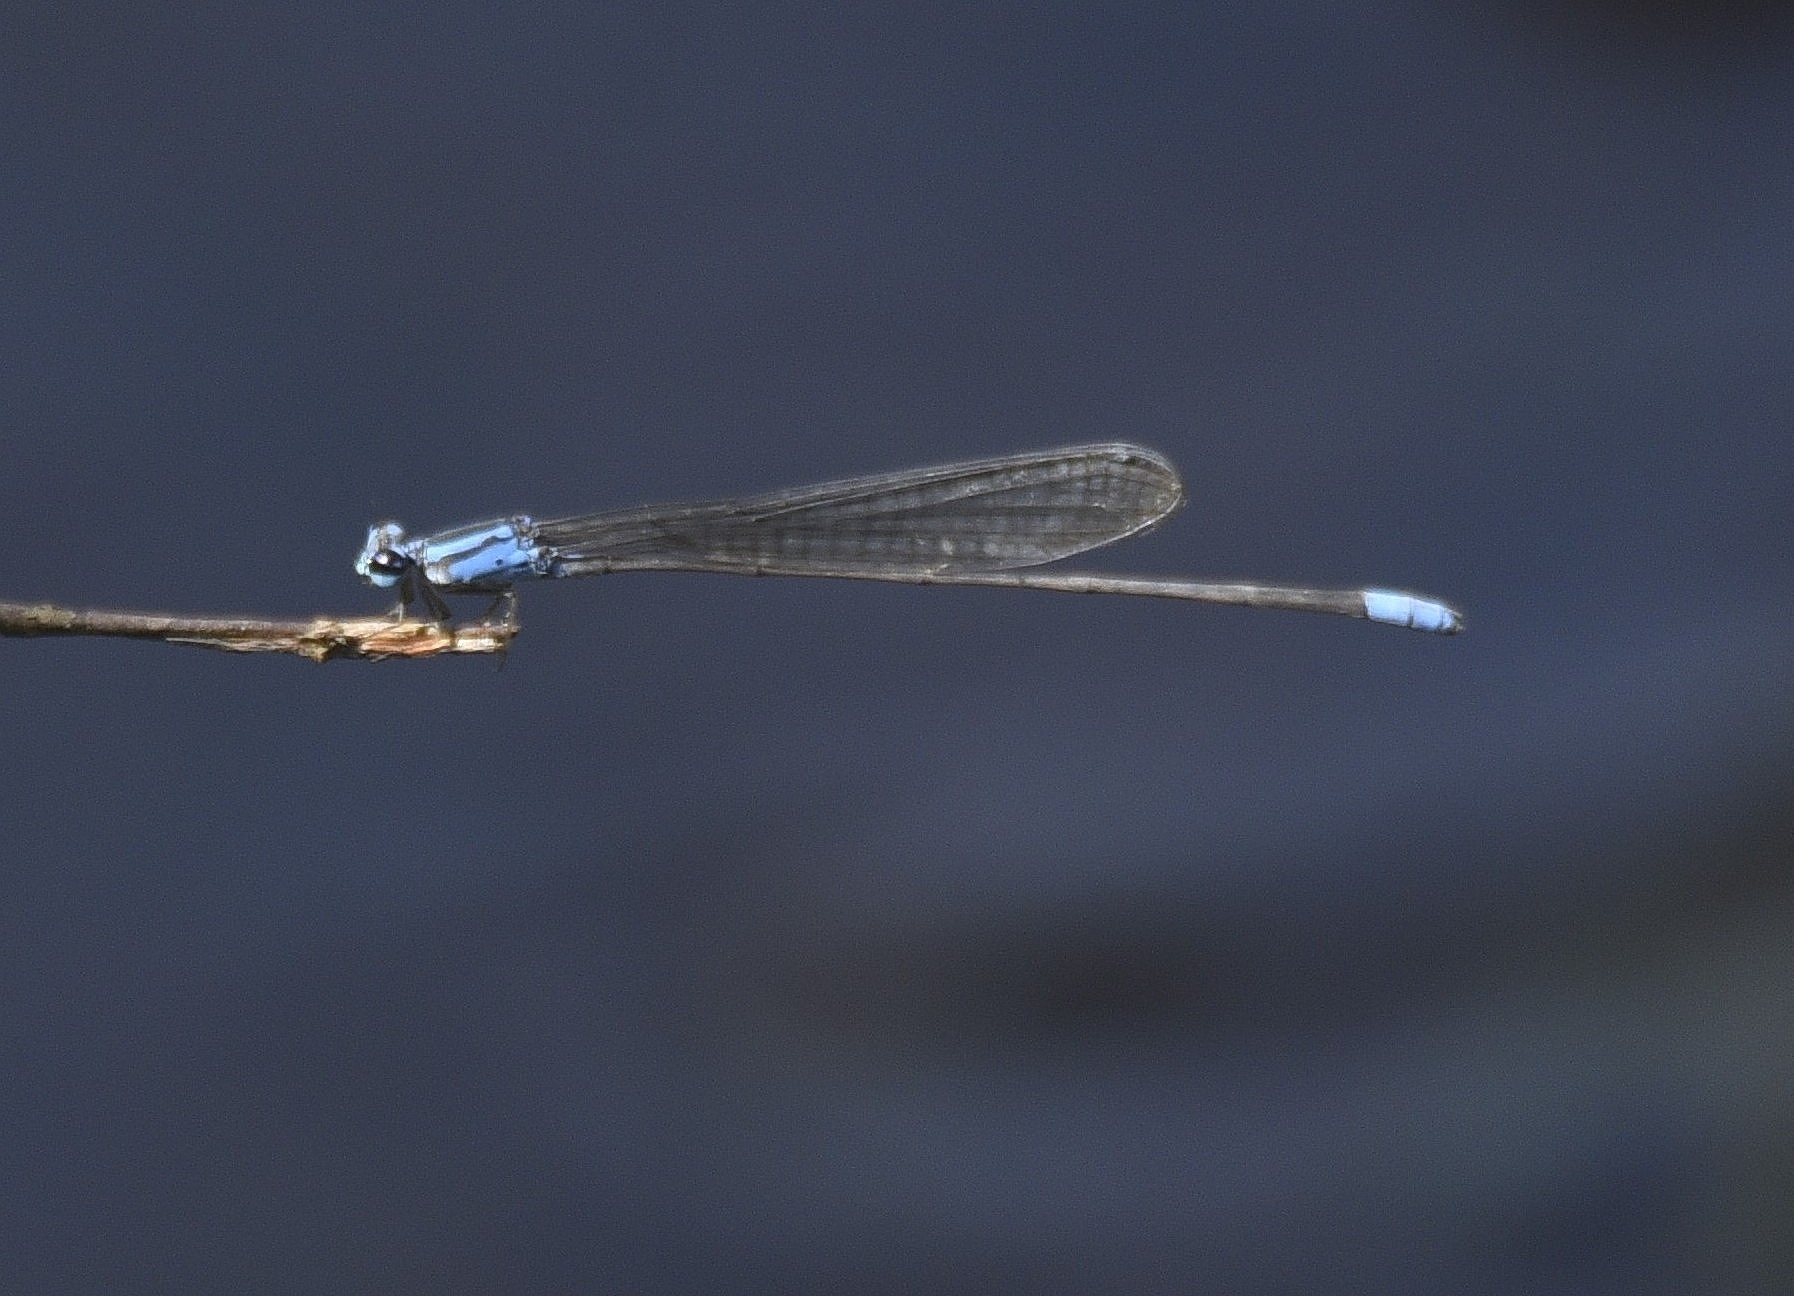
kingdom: Animalia
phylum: Arthropoda
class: Insecta
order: Odonata
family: Coenagrionidae
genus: Archibasis
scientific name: Archibasis oscillans
